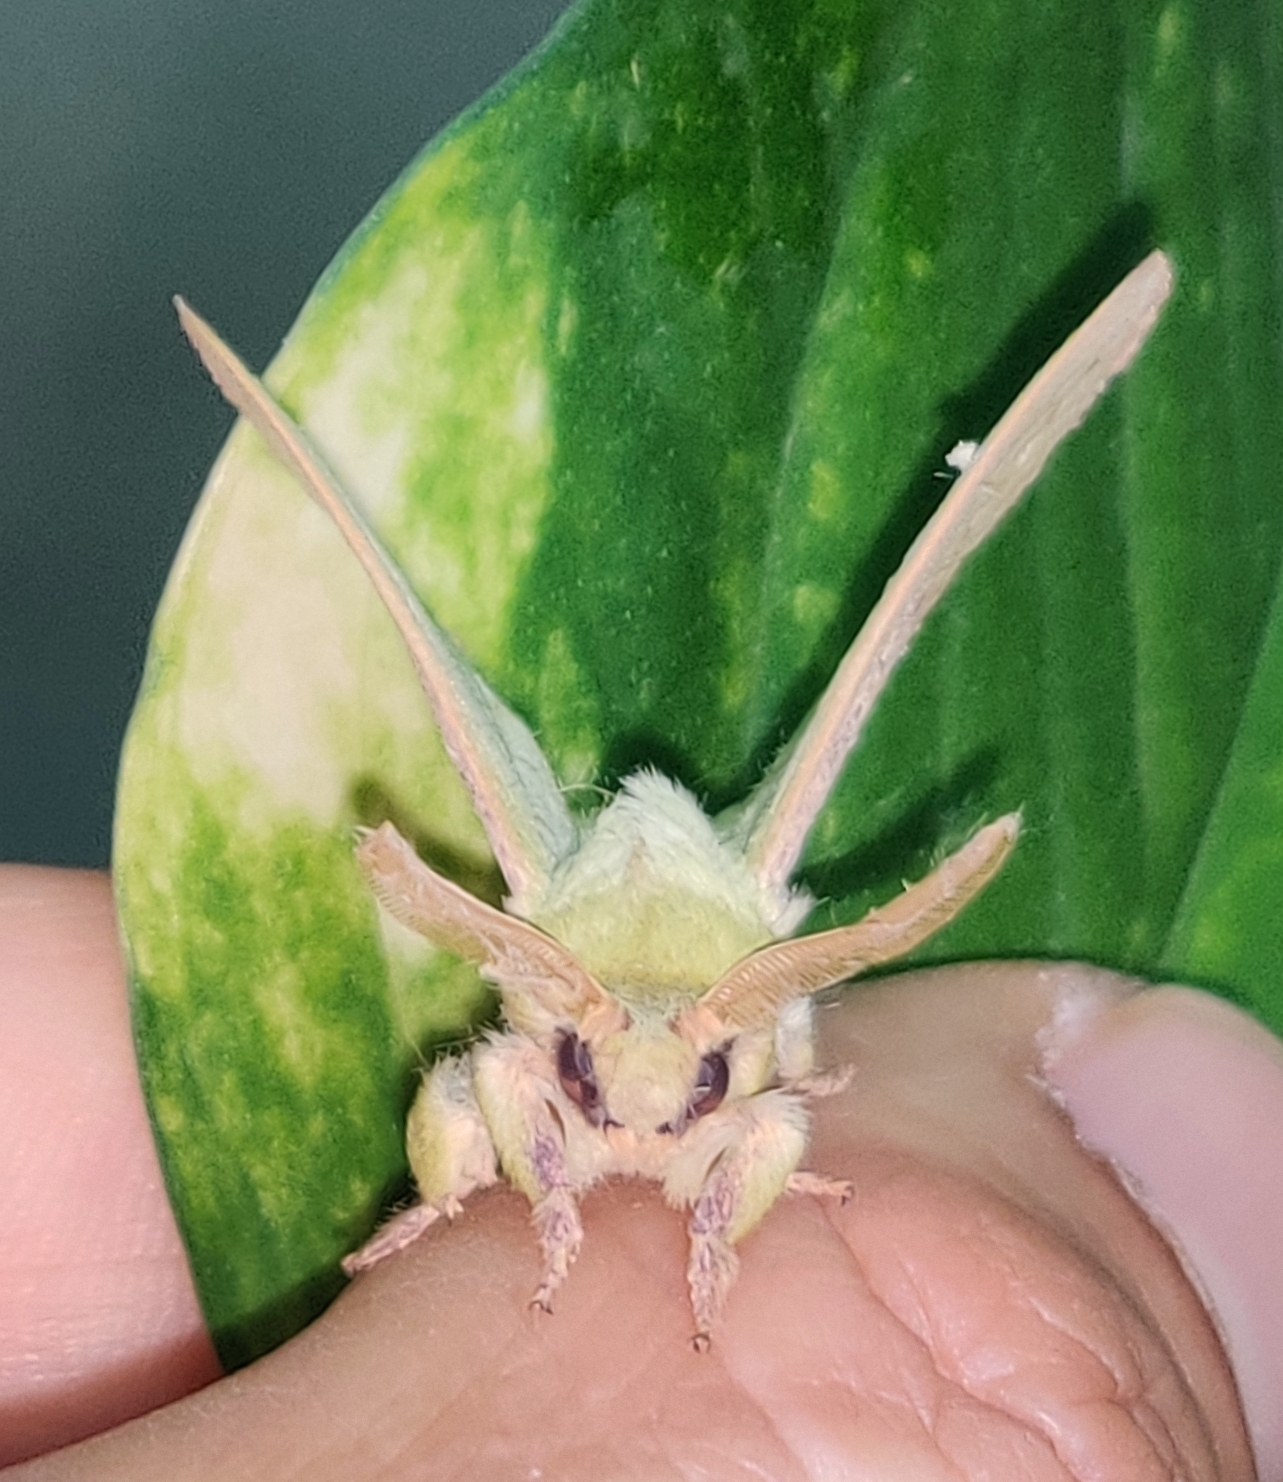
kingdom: Animalia
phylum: Arthropoda
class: Insecta
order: Lepidoptera
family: Lasiocampidae
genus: Trabala
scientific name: Trabala vishnou
